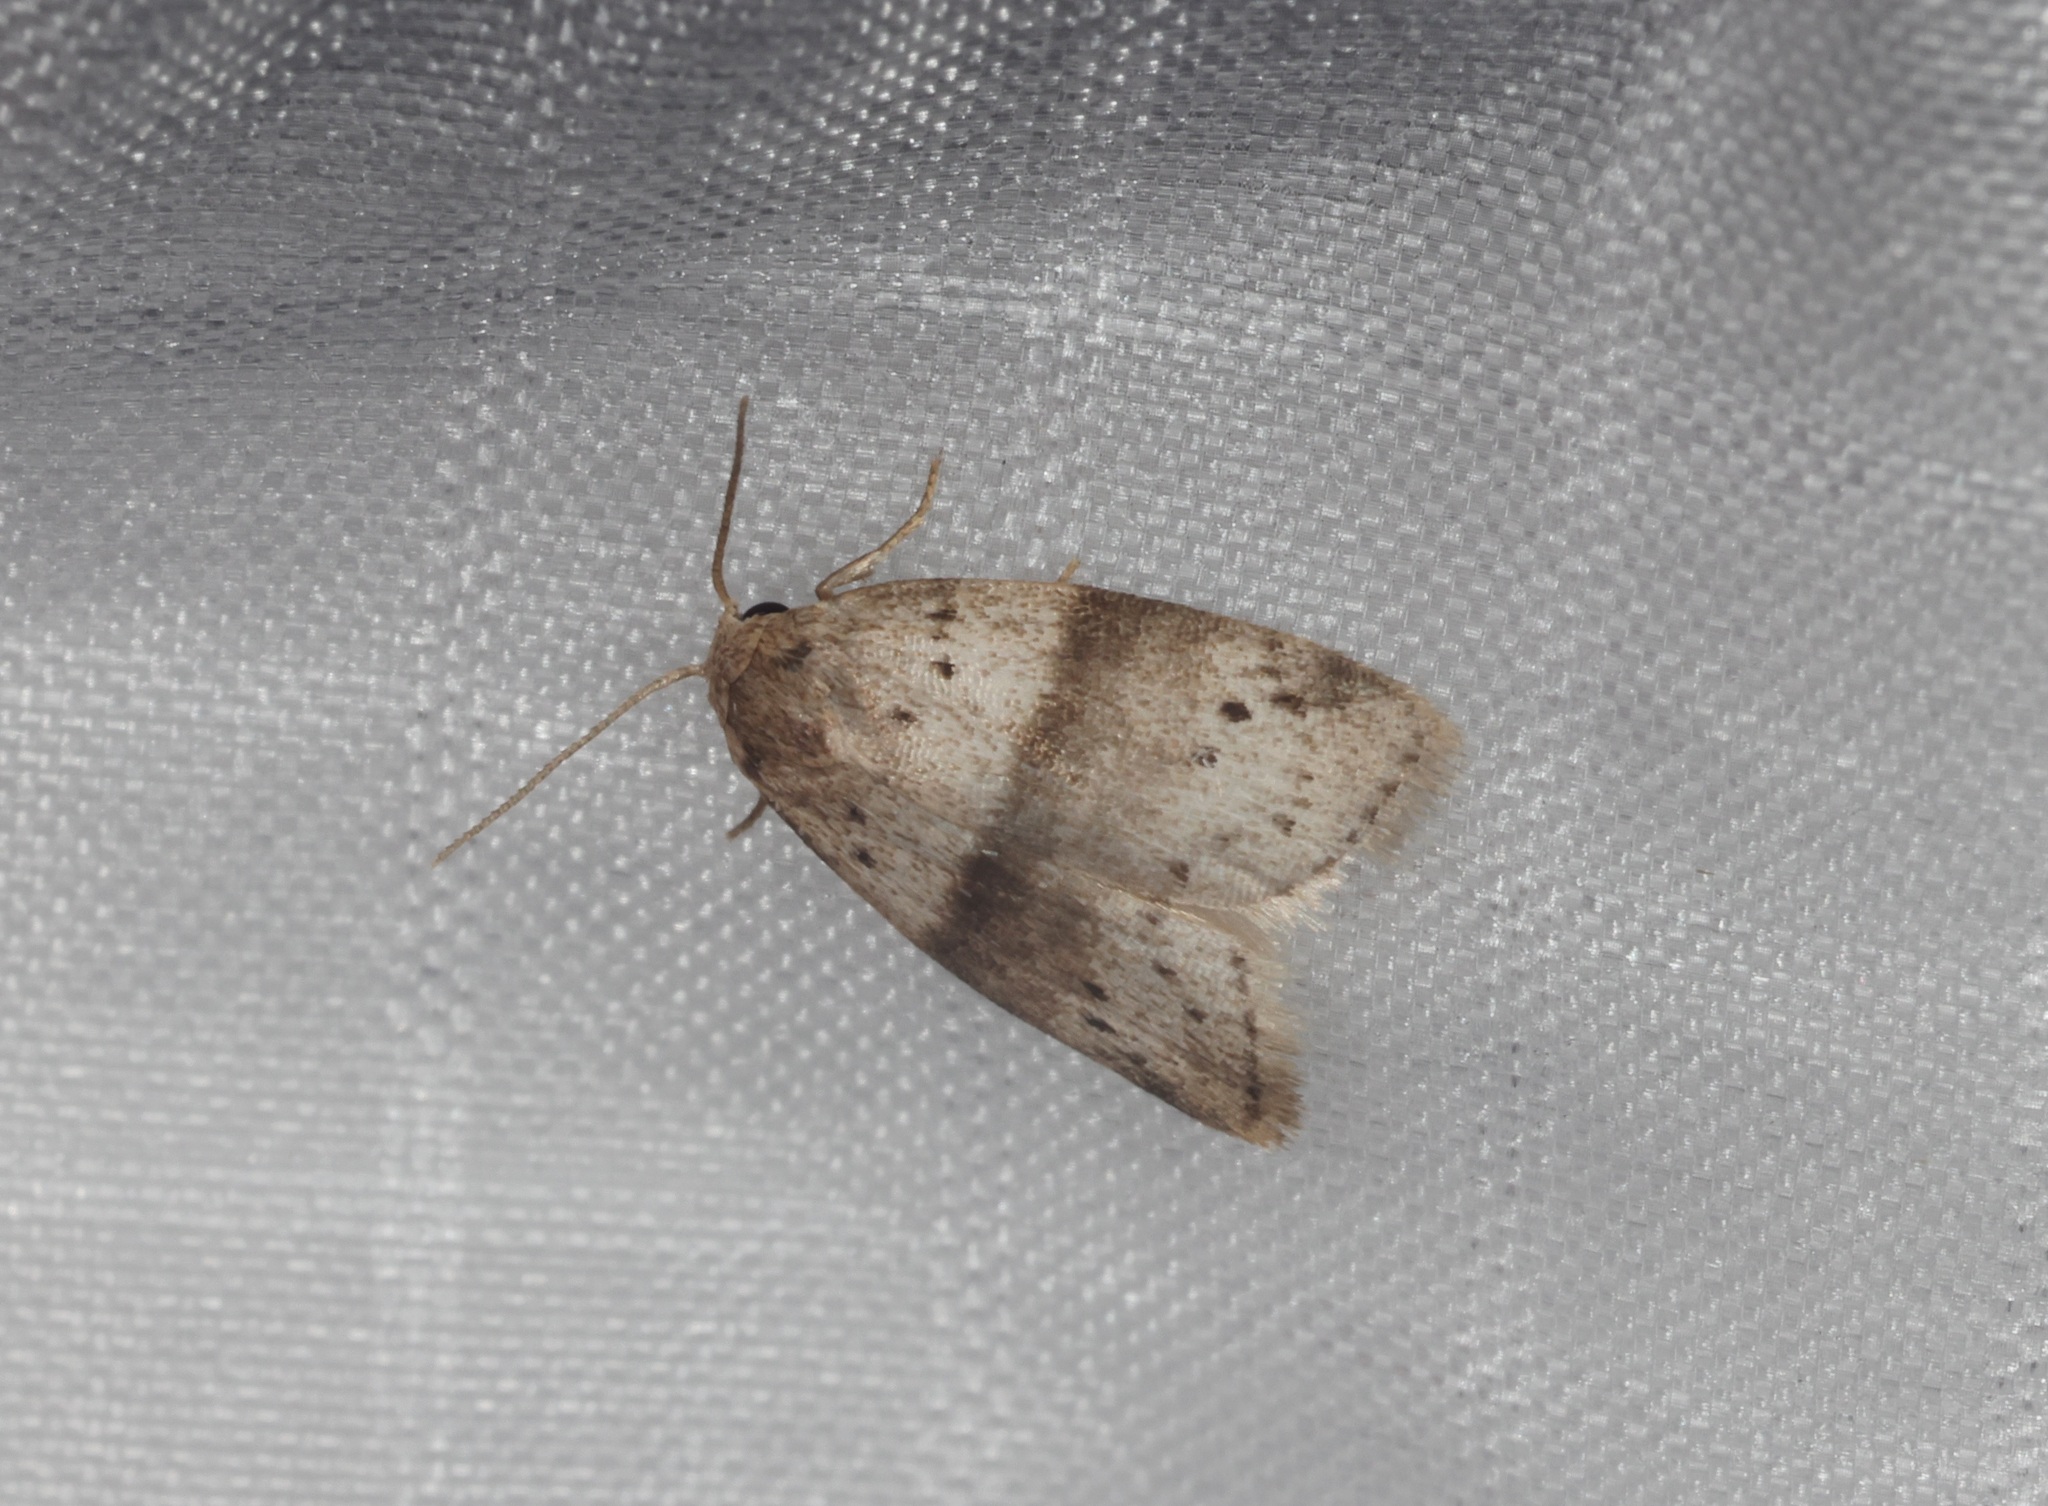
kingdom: Animalia
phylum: Arthropoda
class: Insecta
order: Lepidoptera
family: Erebidae
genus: Stictane
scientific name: Stictane rectilinea
